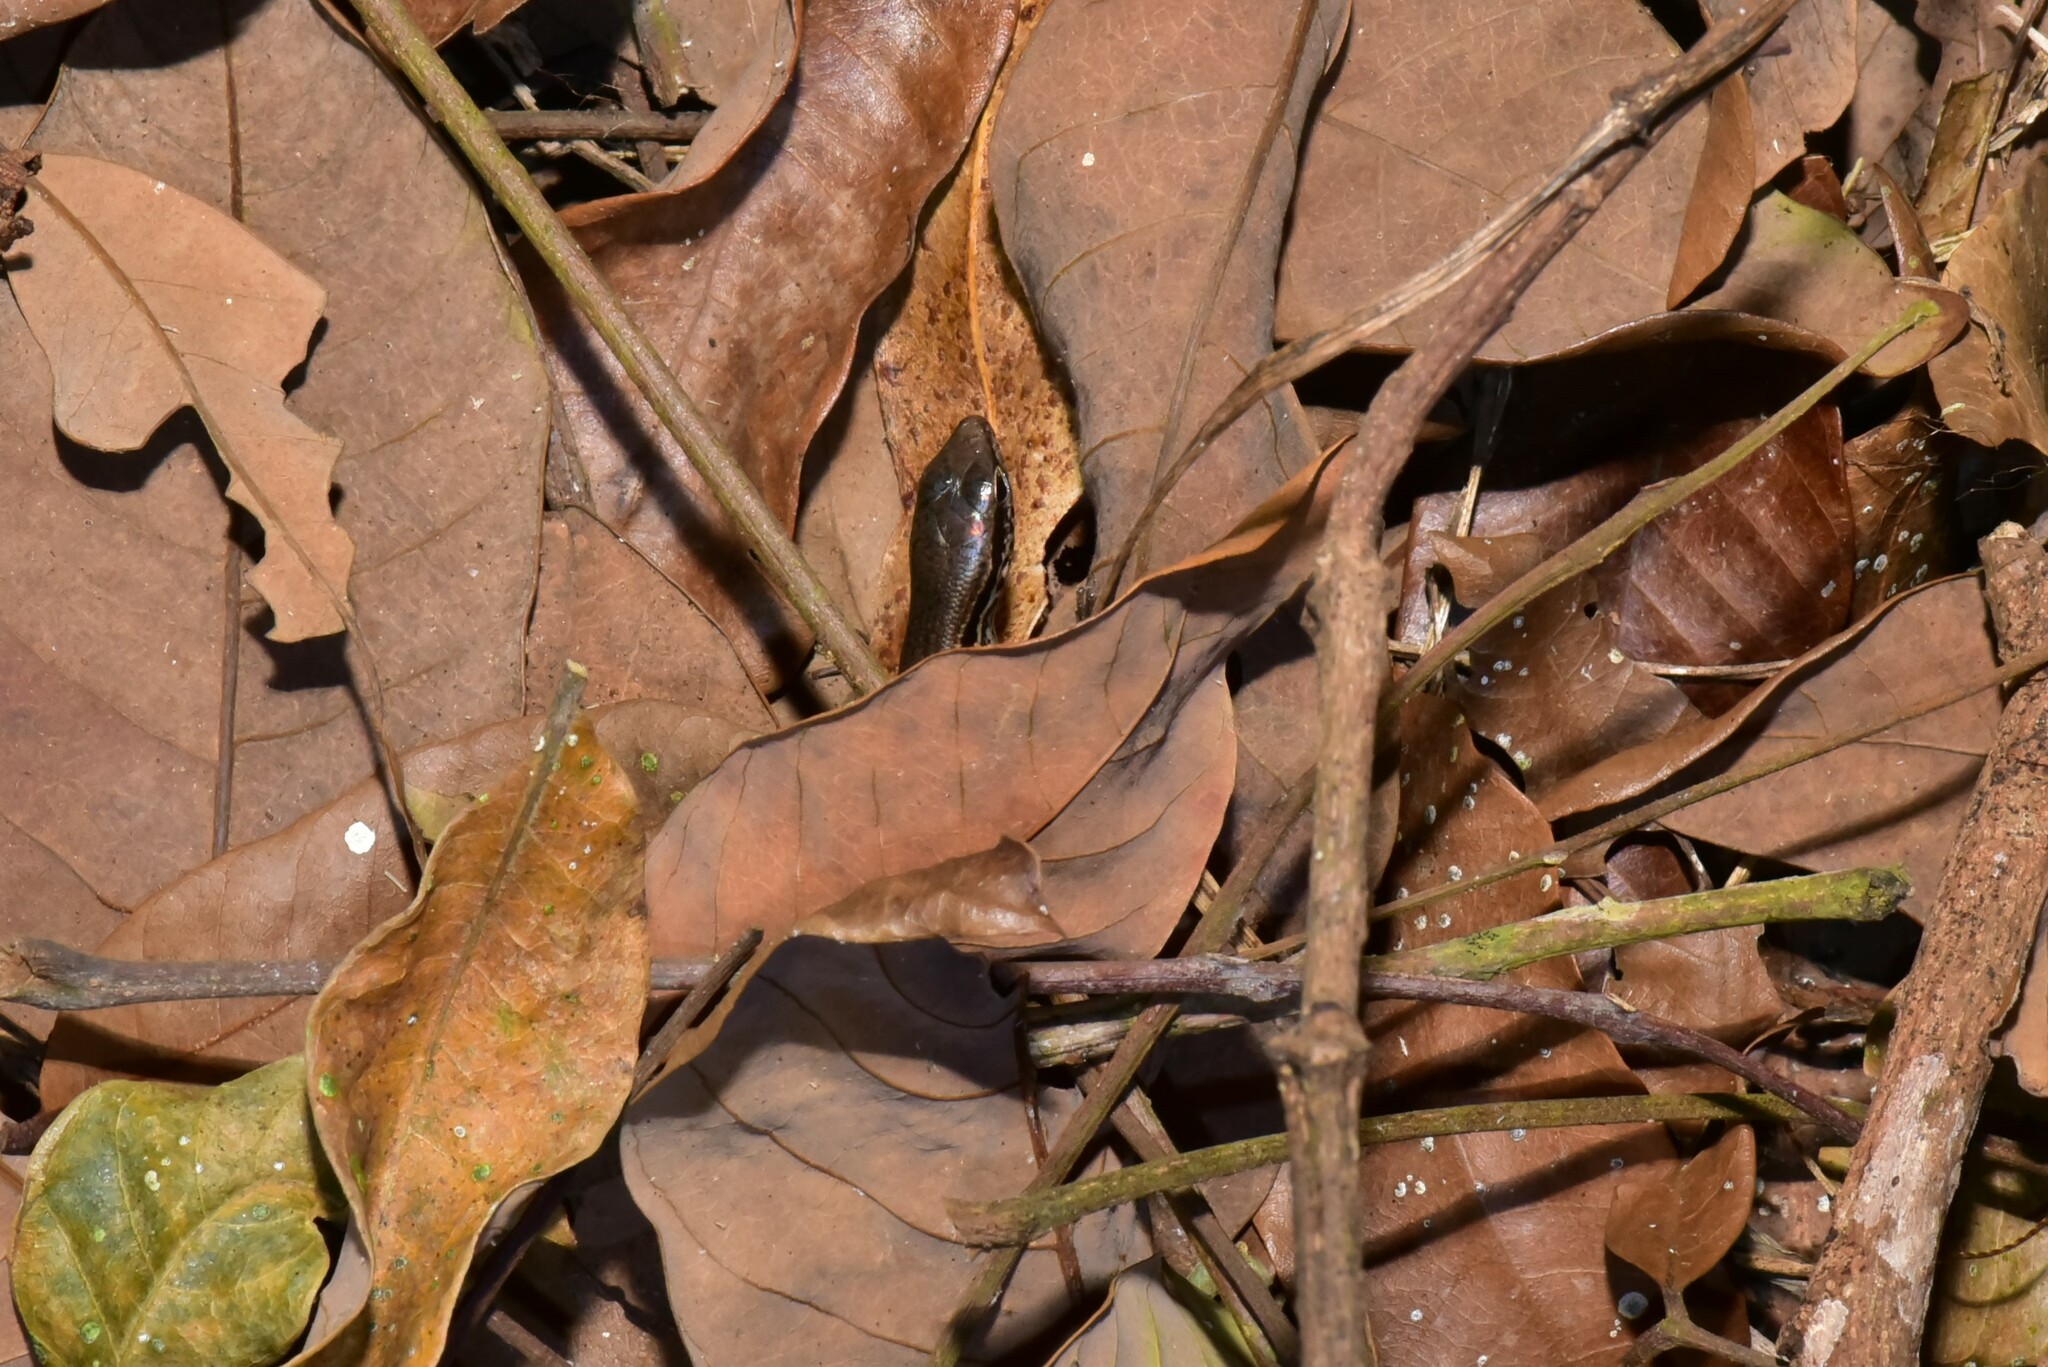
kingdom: Animalia
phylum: Chordata
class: Squamata
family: Scincidae
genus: Sphenomorphus
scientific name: Sphenomorphus indicus
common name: Himalayan forest skink
